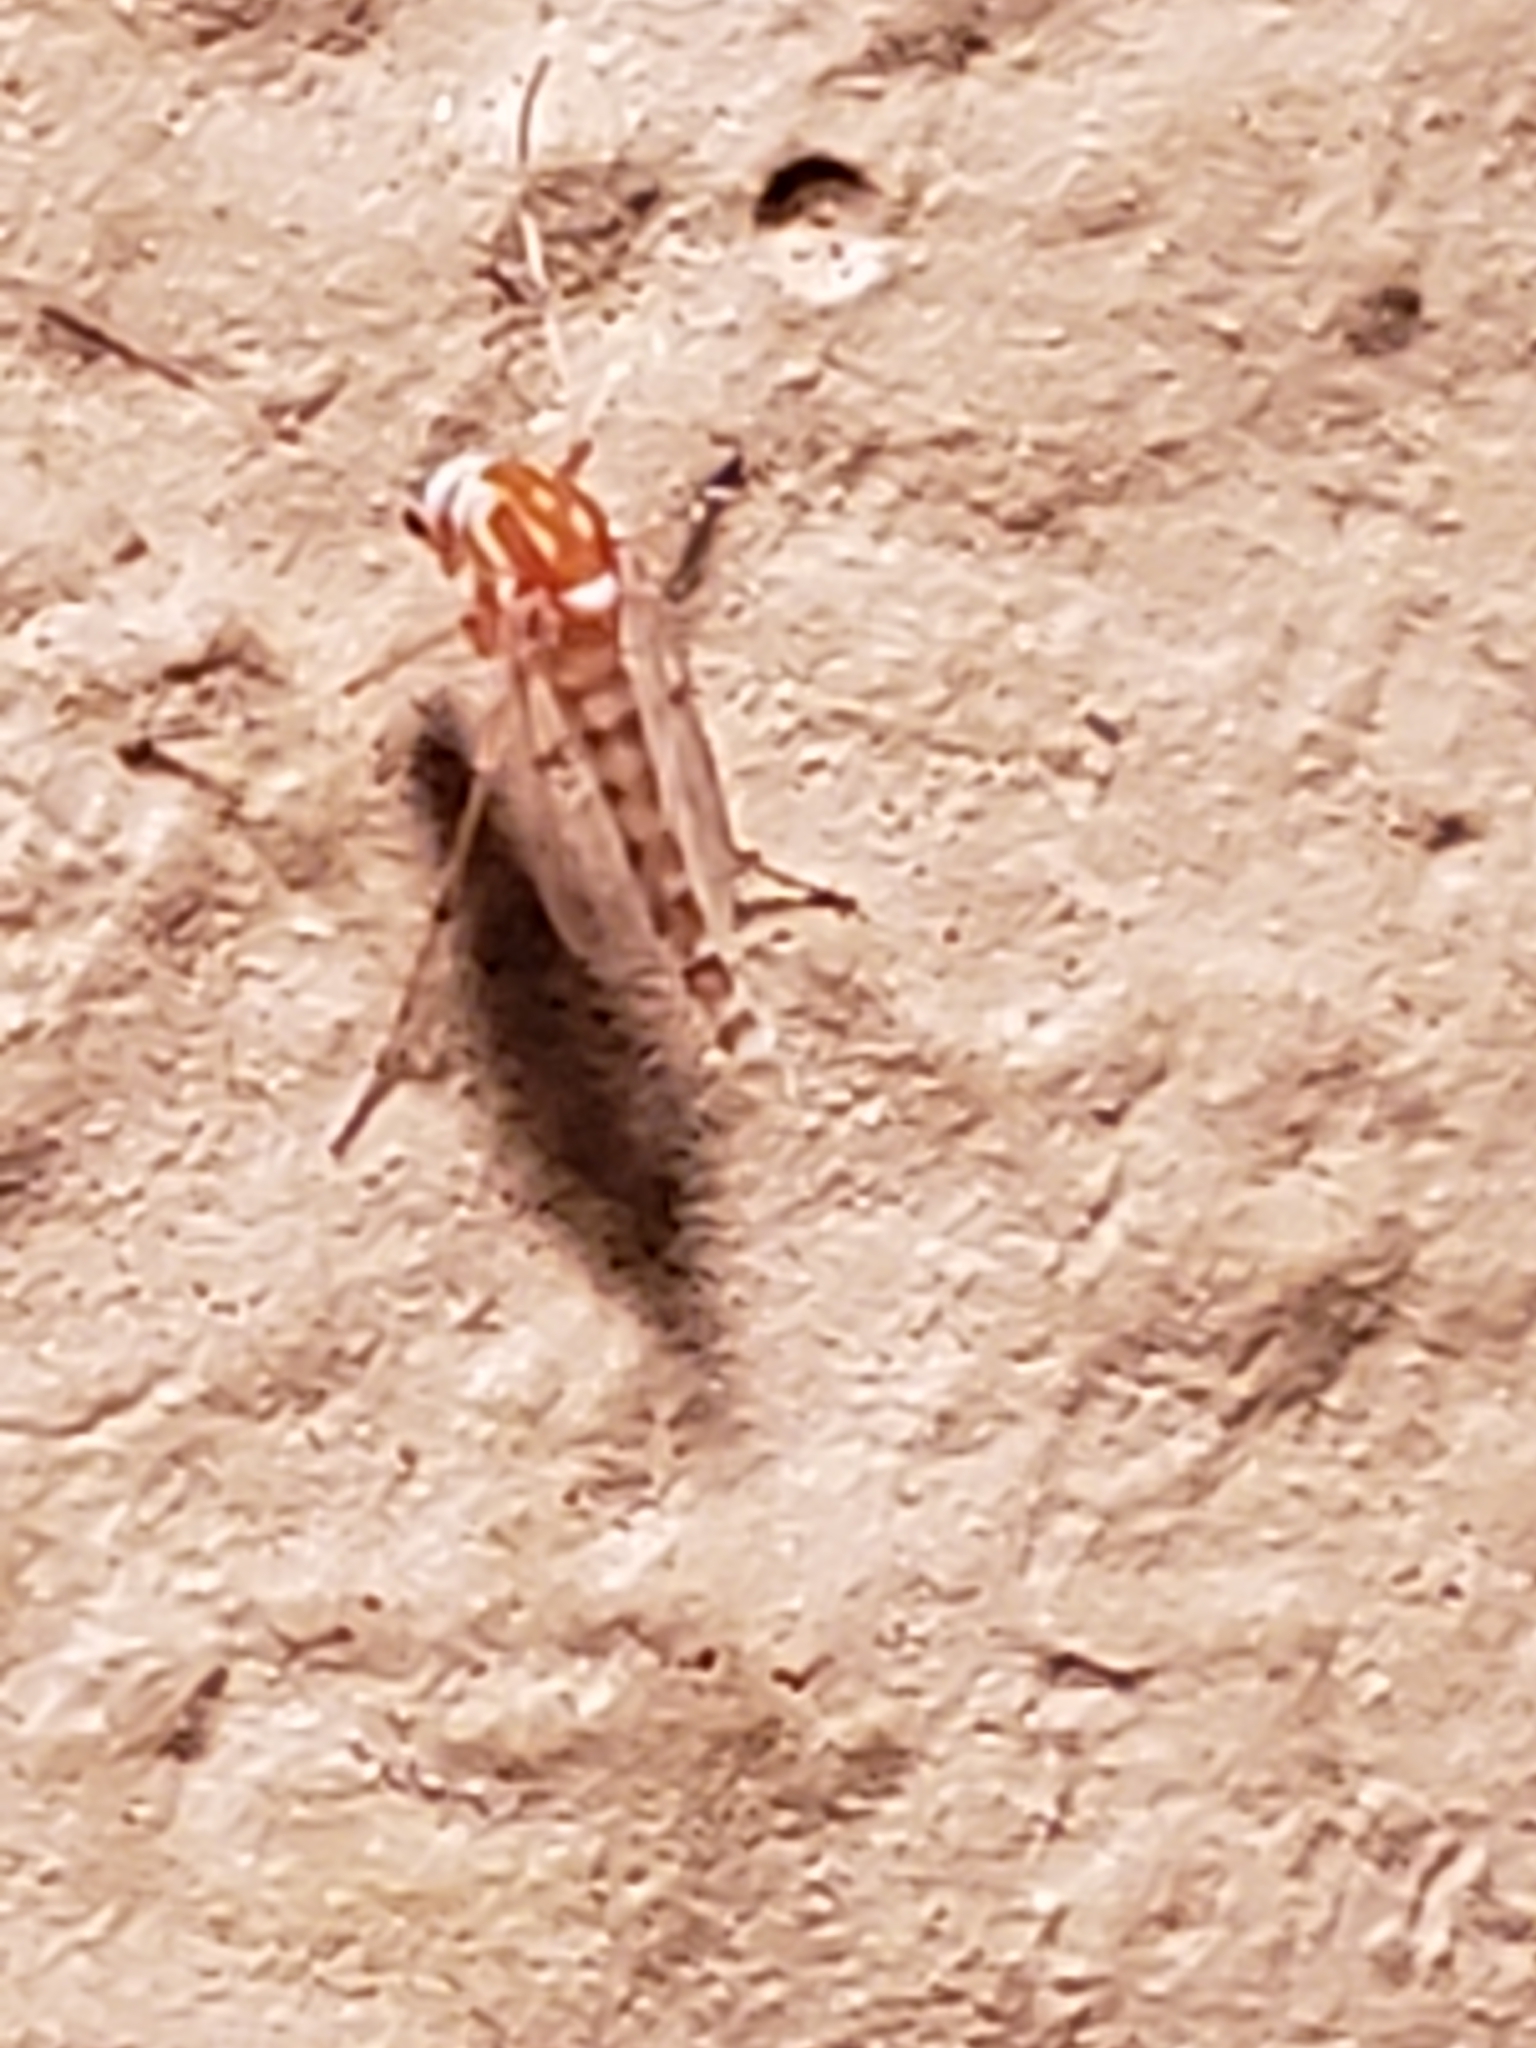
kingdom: Animalia
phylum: Arthropoda
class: Insecta
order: Diptera
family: Chironomidae
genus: Procladius
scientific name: Procladius bellus
